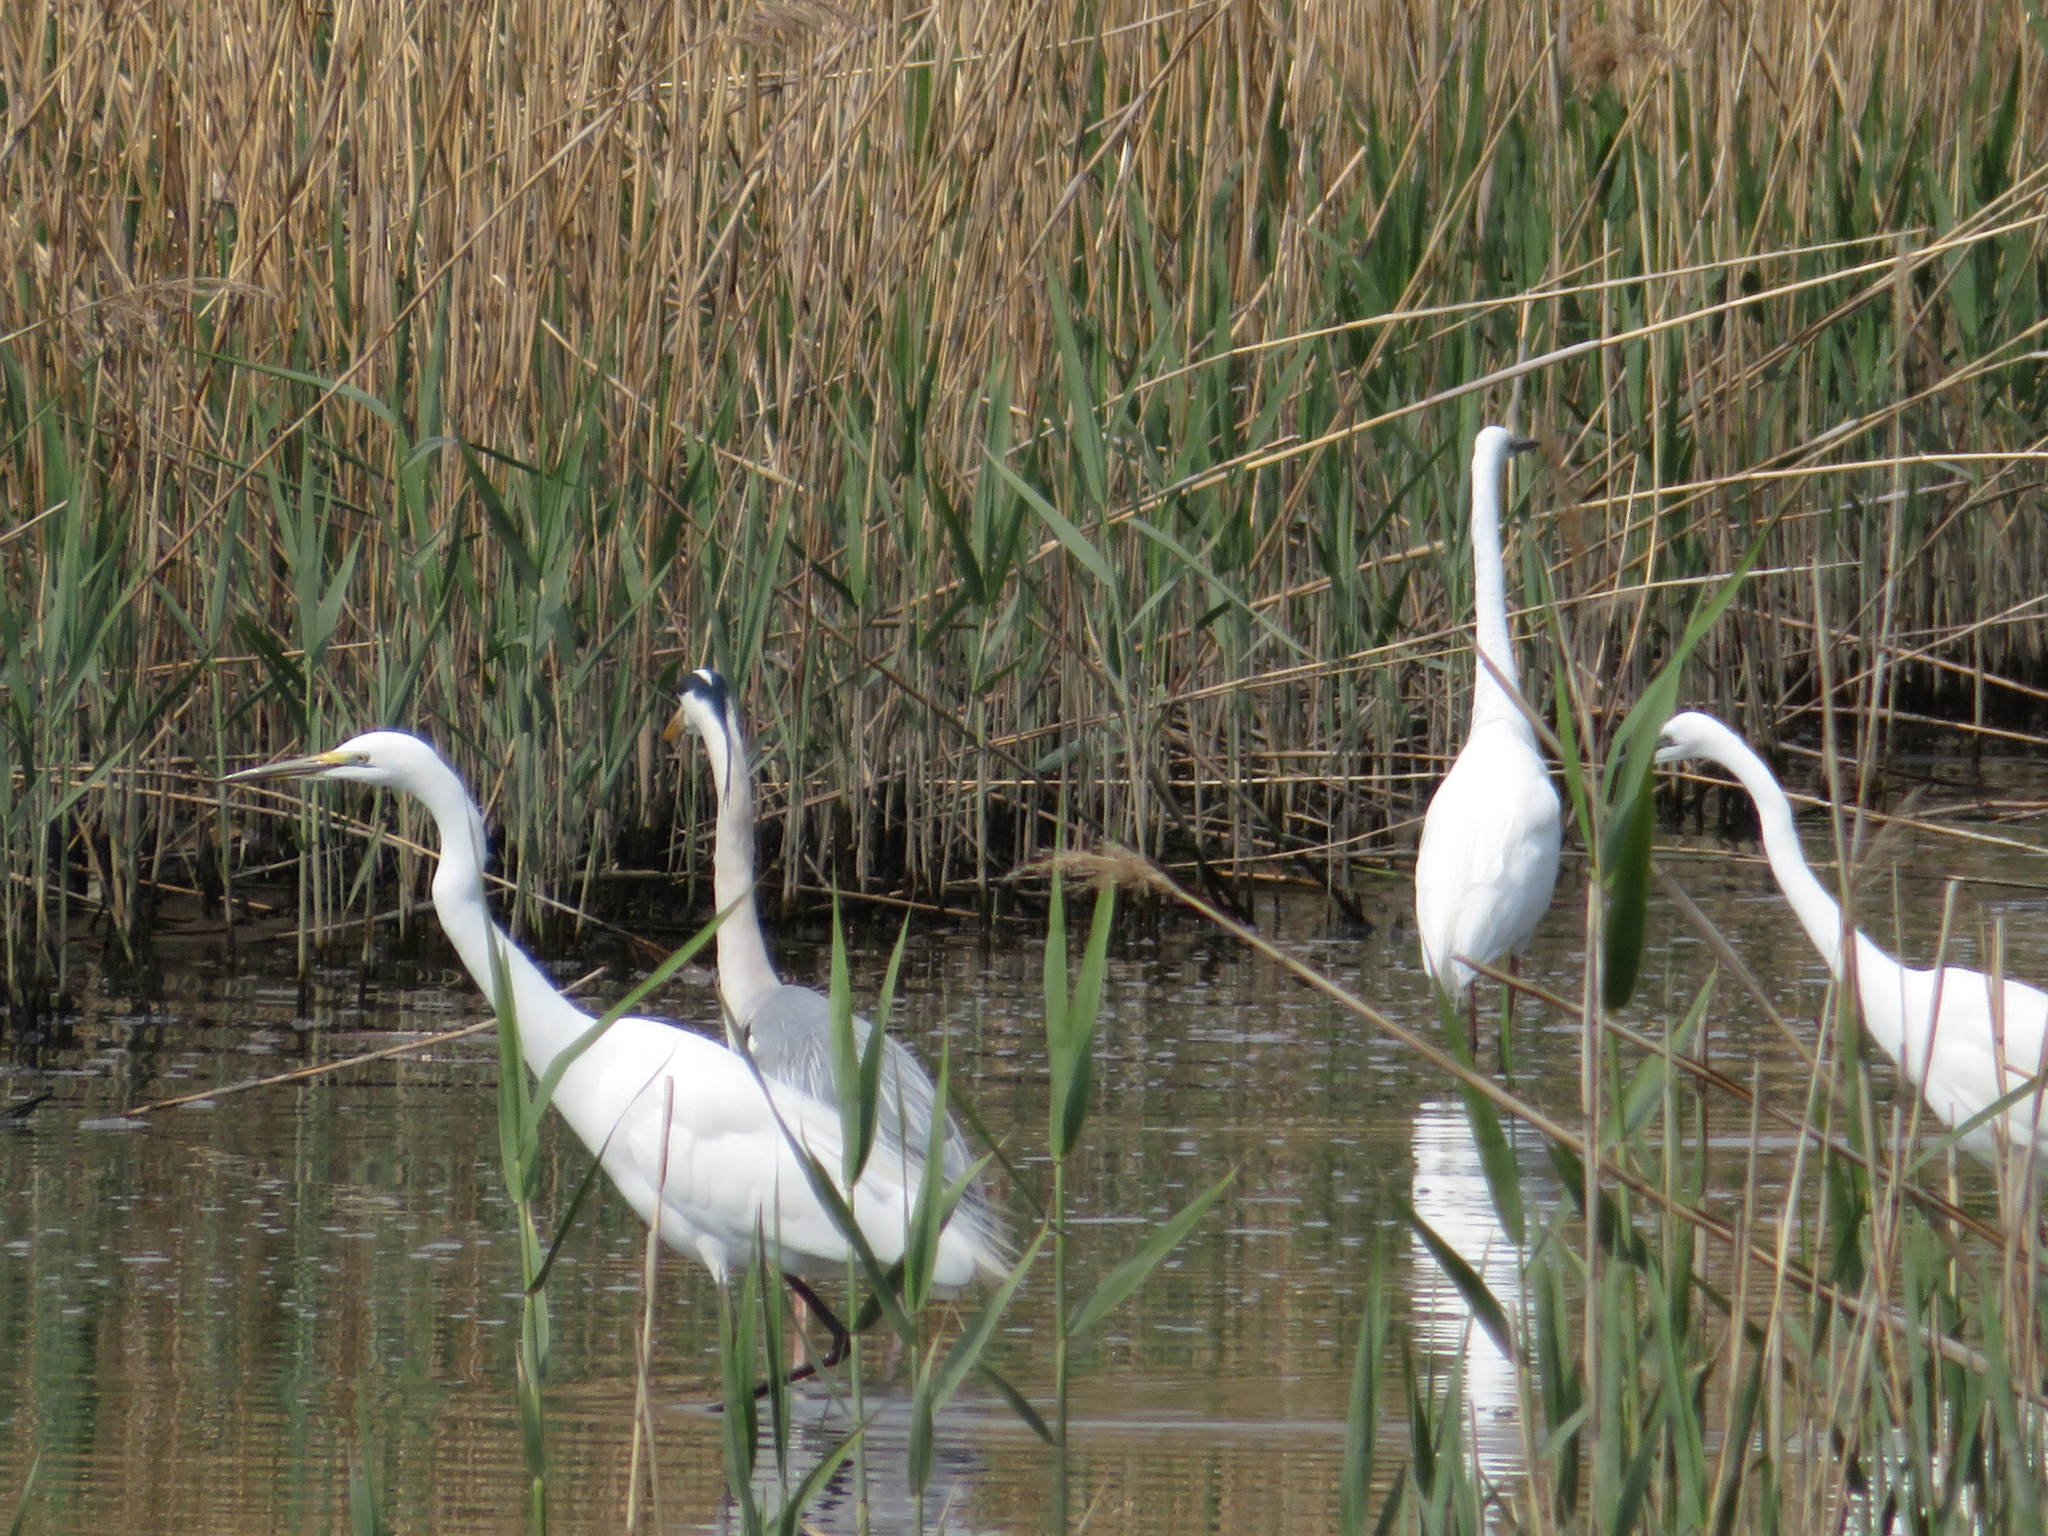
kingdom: Animalia
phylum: Chordata
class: Aves
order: Pelecaniformes
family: Ardeidae
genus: Ardea
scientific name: Ardea alba
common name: Great egret
